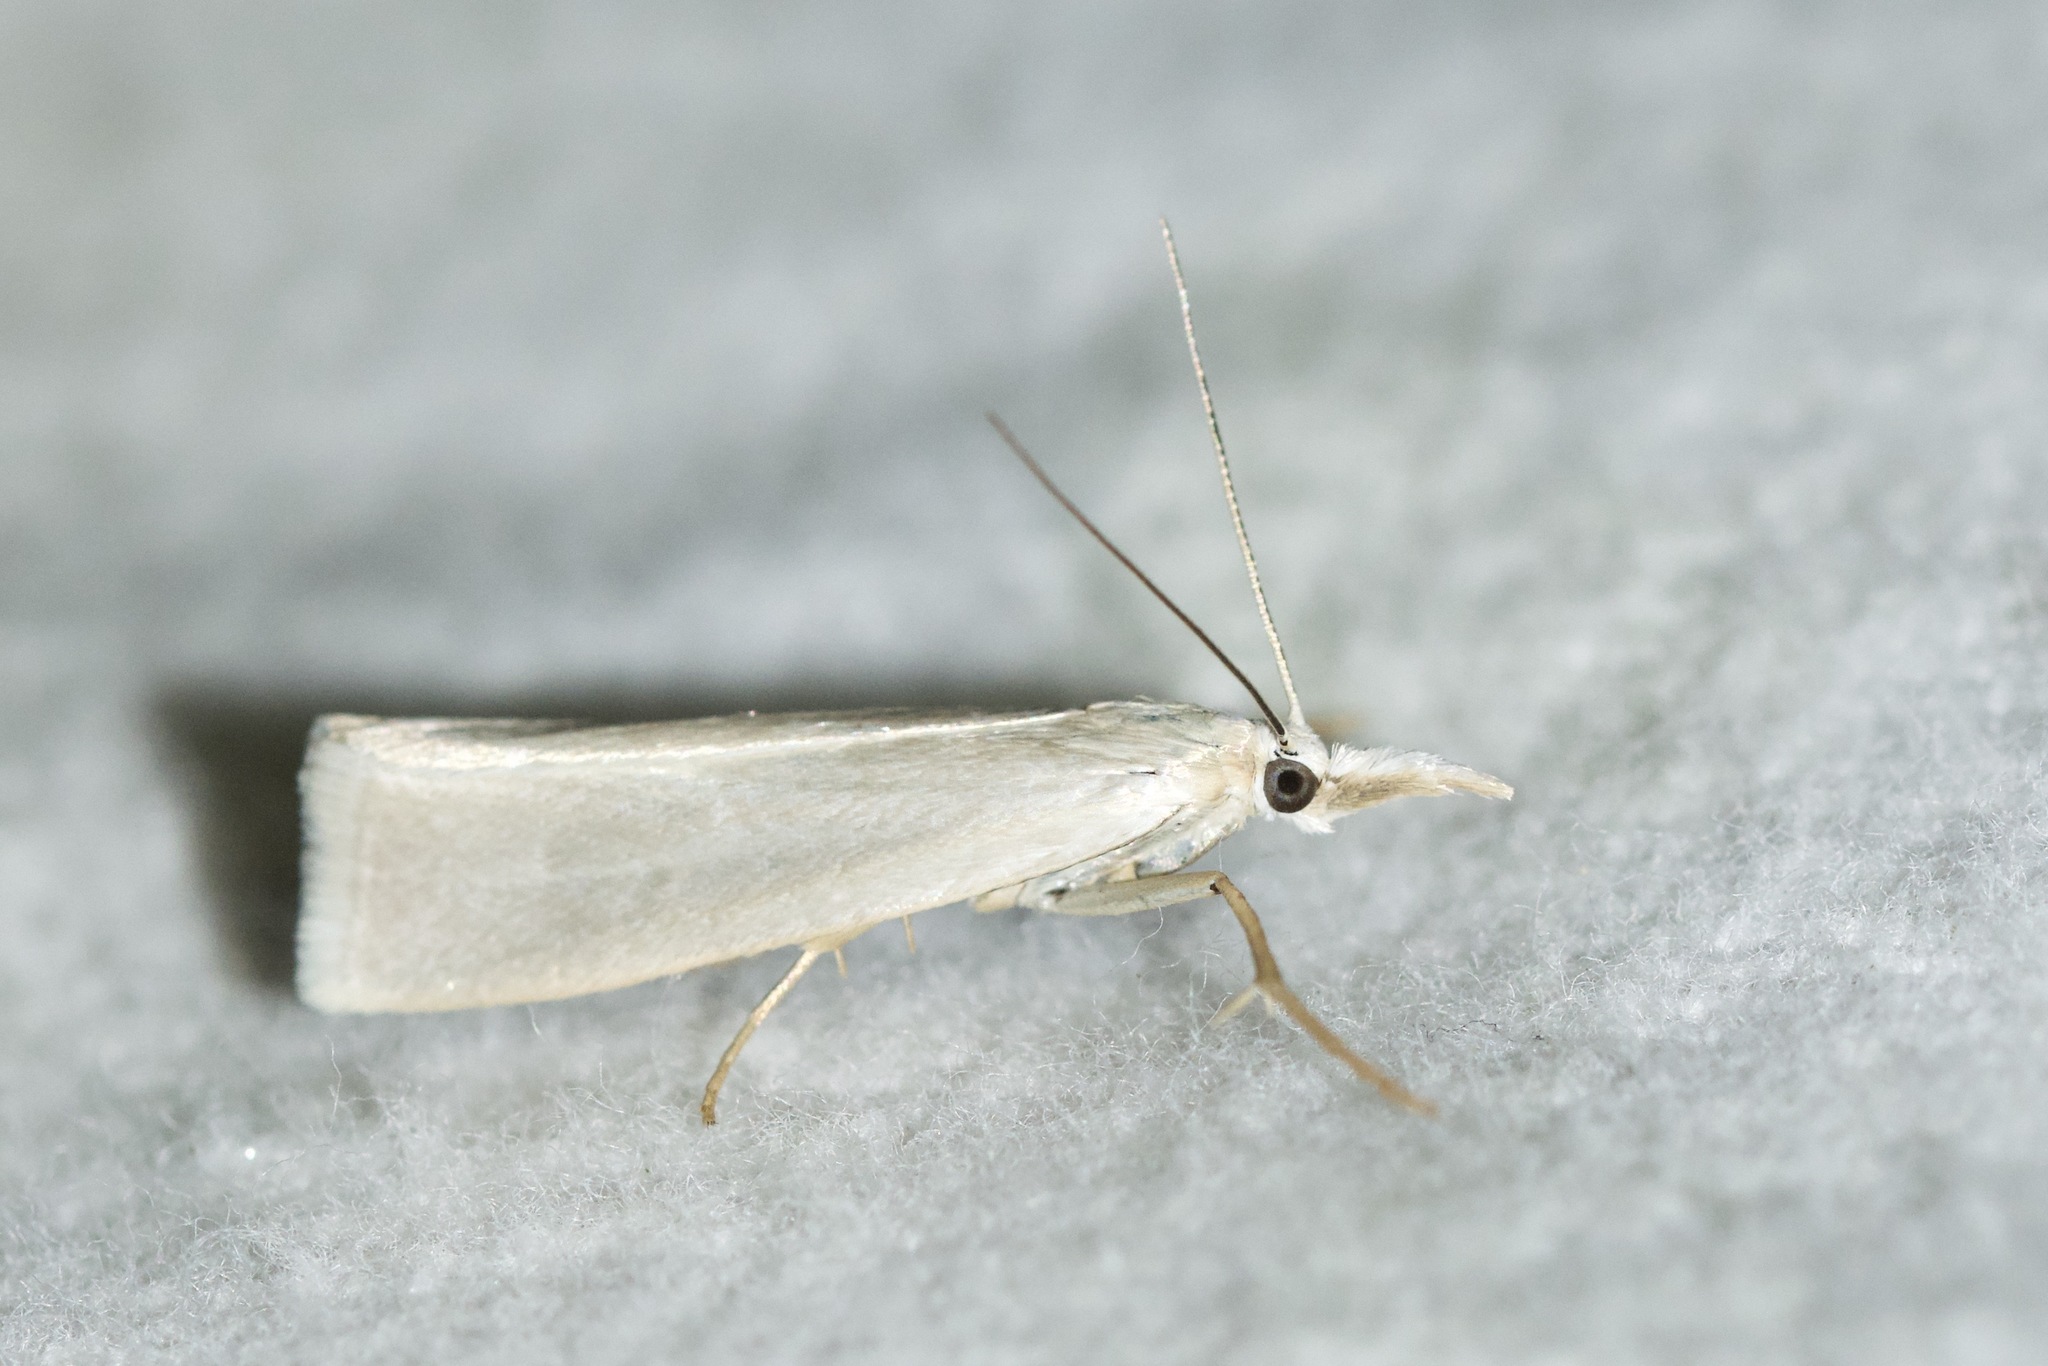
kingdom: Animalia
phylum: Arthropoda
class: Insecta
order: Lepidoptera
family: Crambidae
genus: Crambus
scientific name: Crambus perlellus
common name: Yellow satin veneer
